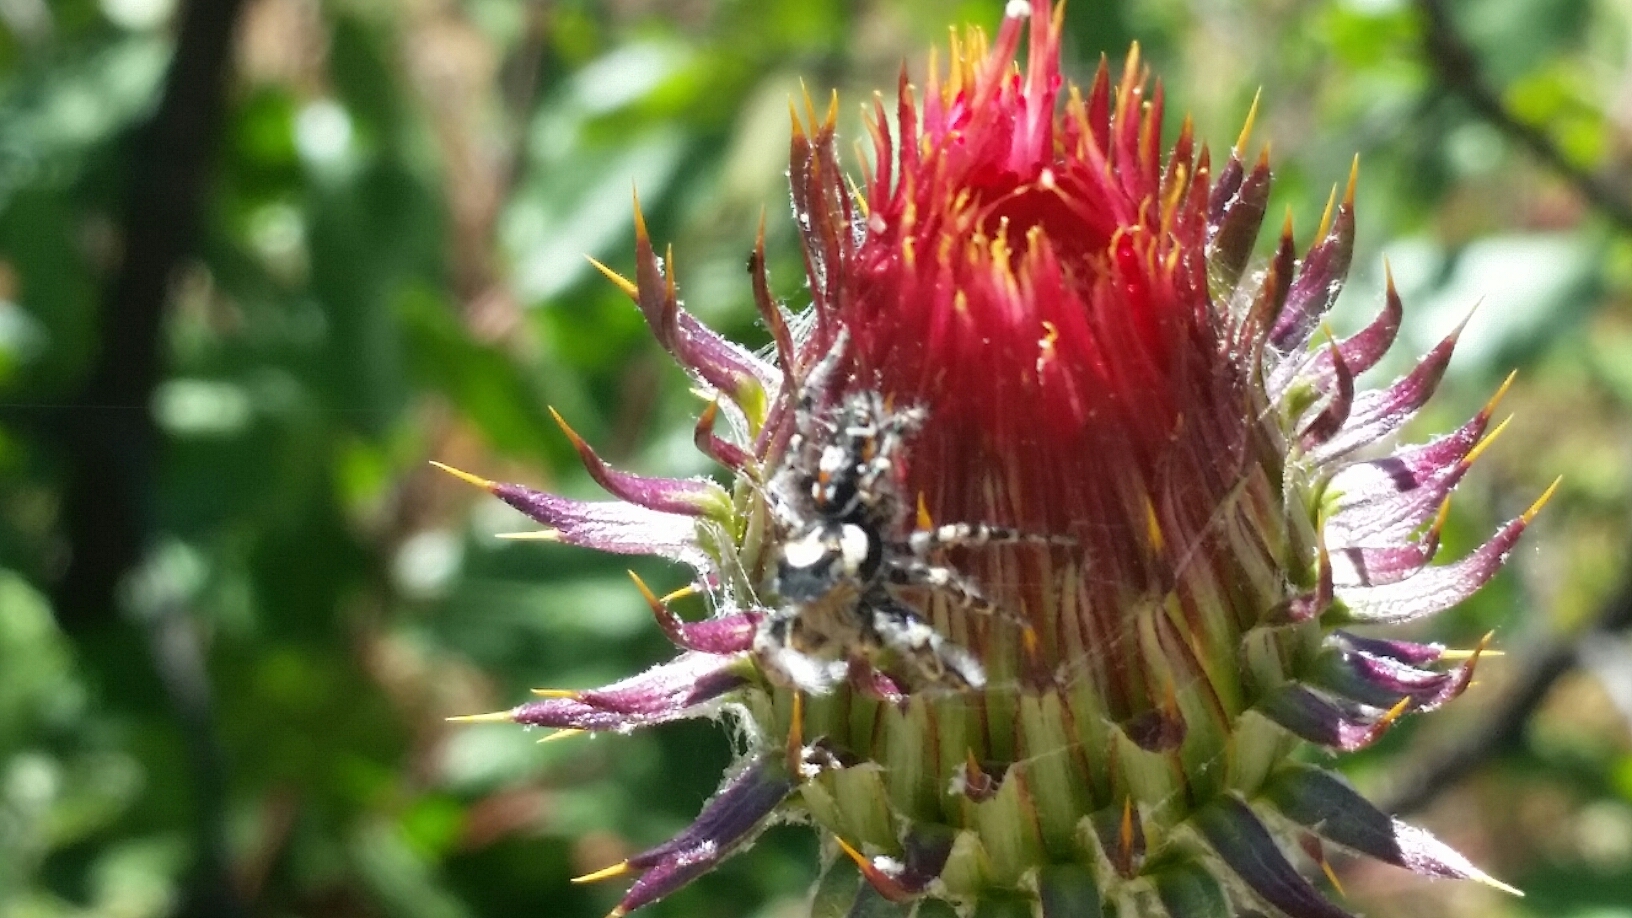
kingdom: Animalia
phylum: Arthropoda
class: Arachnida
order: Araneae
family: Salticidae
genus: Phidippus
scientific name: Phidippus comatus
